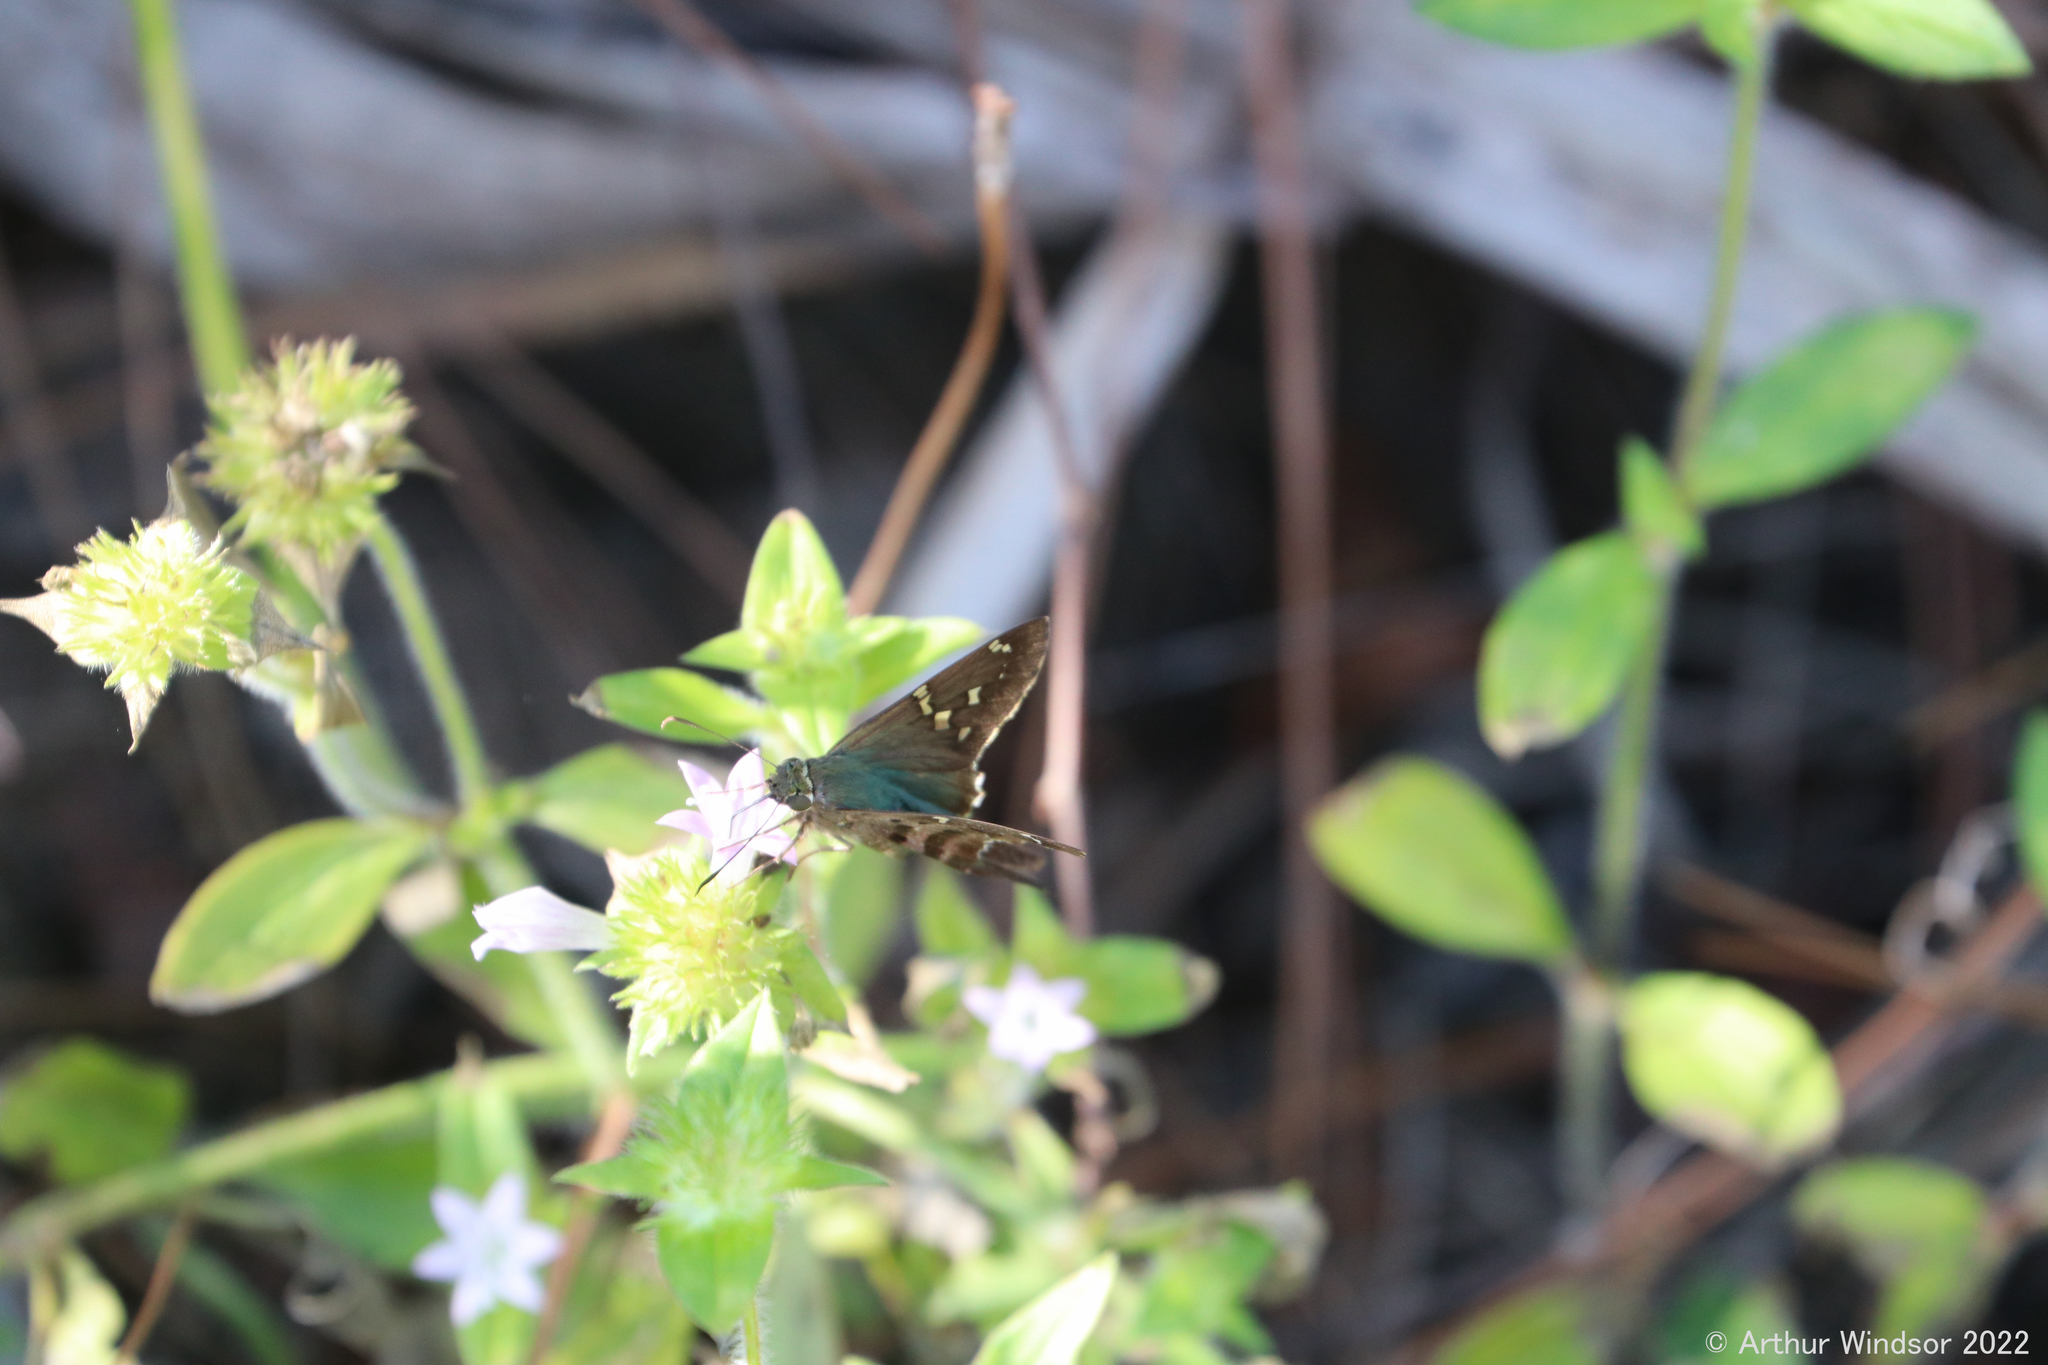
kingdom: Animalia
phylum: Arthropoda
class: Insecta
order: Lepidoptera
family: Hesperiidae
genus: Urbanus
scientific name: Urbanus proteus
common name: Long-tailed skipper
